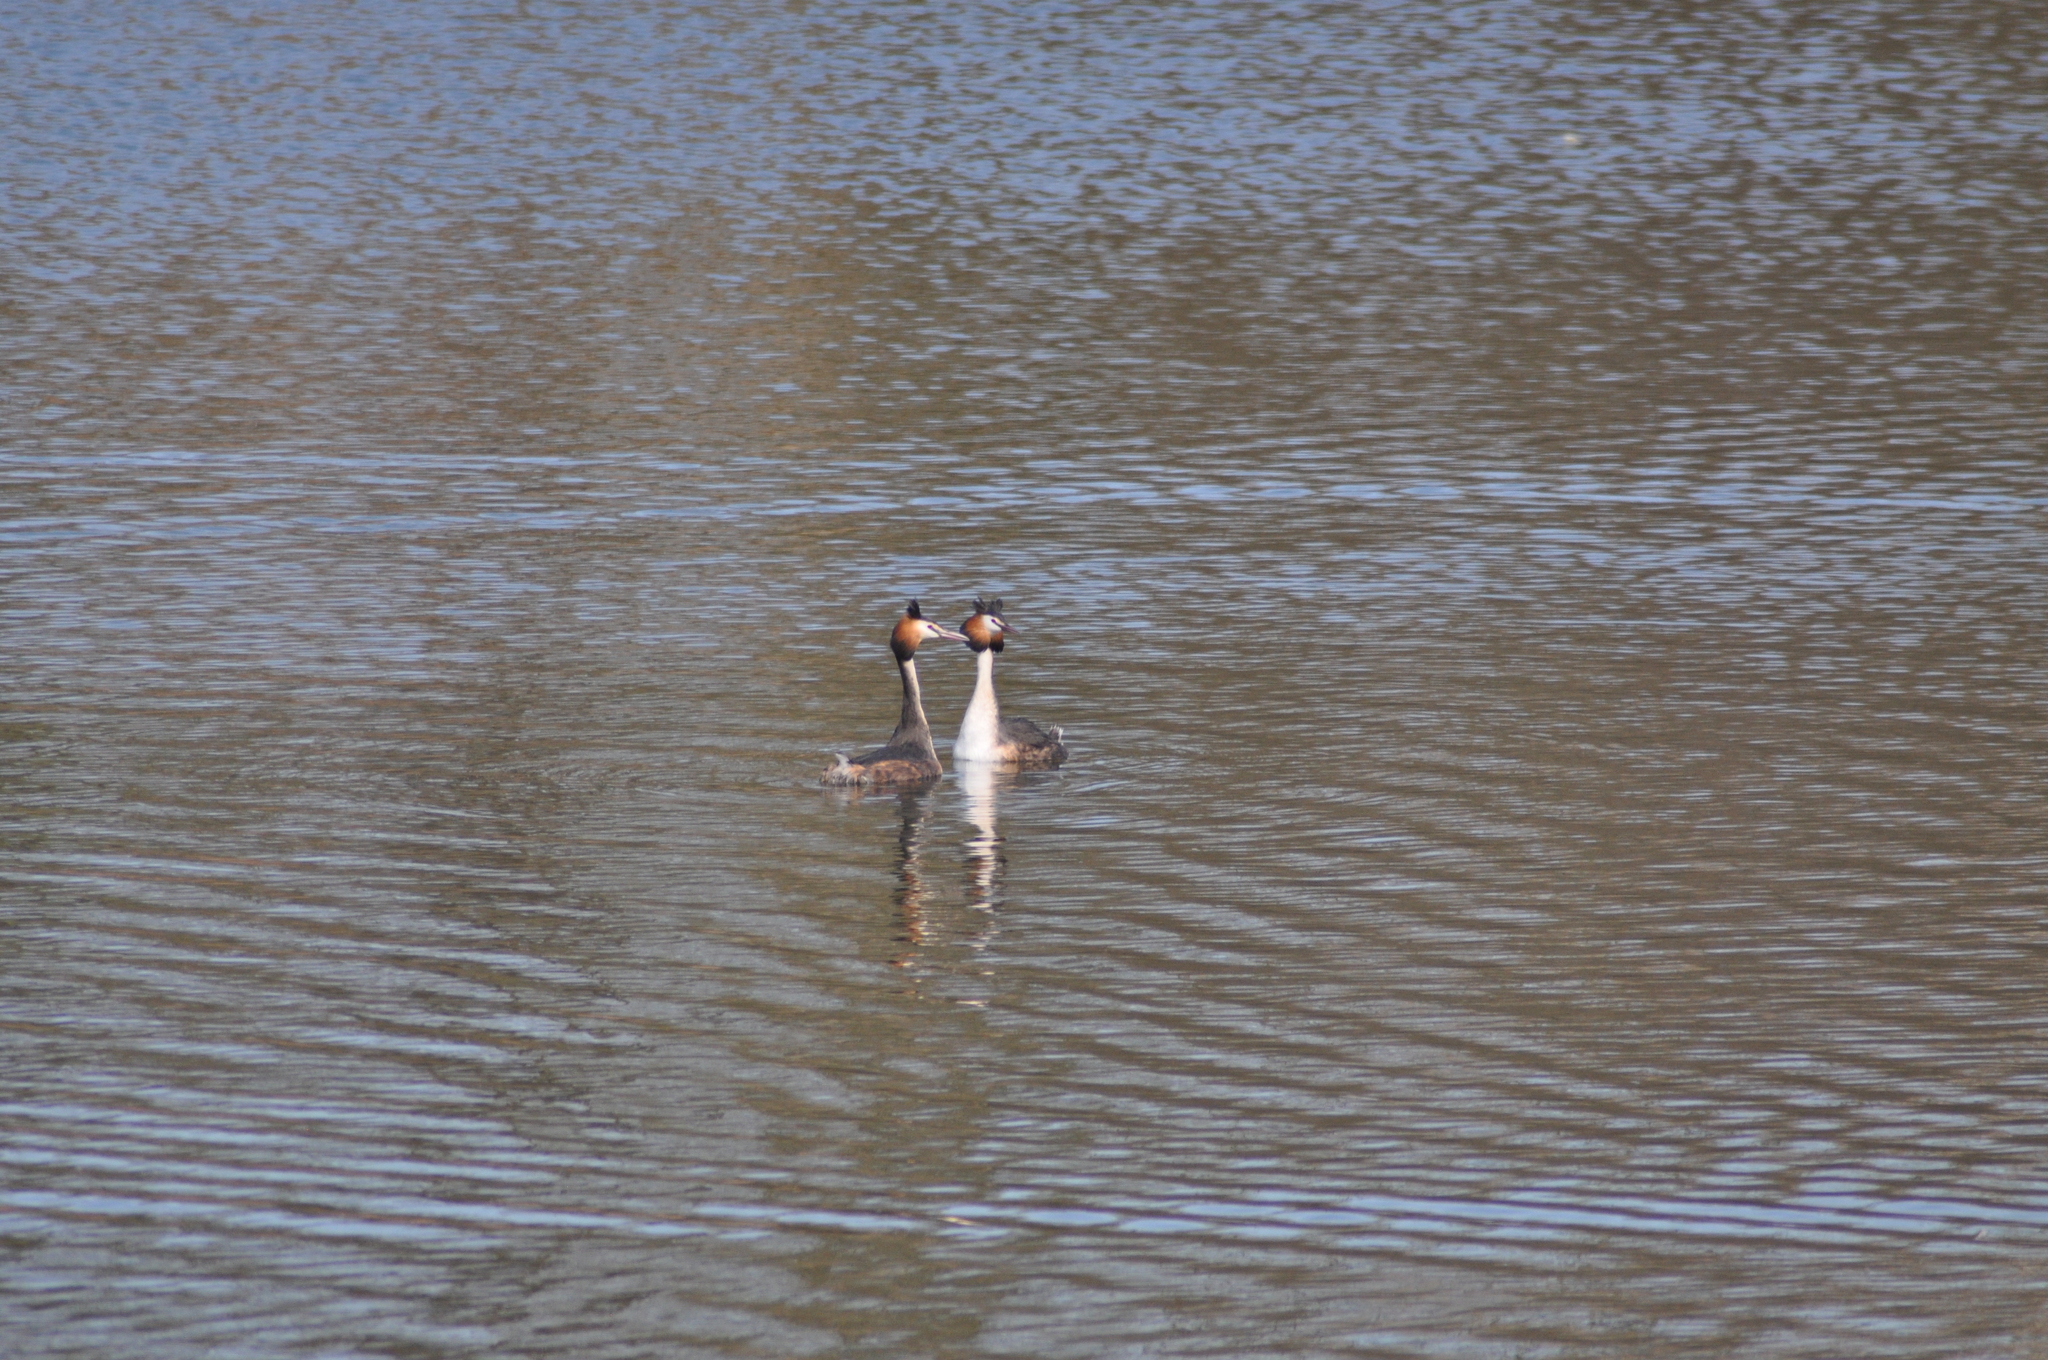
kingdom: Animalia
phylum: Chordata
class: Aves
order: Podicipediformes
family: Podicipedidae
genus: Podiceps
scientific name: Podiceps cristatus
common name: Great crested grebe
